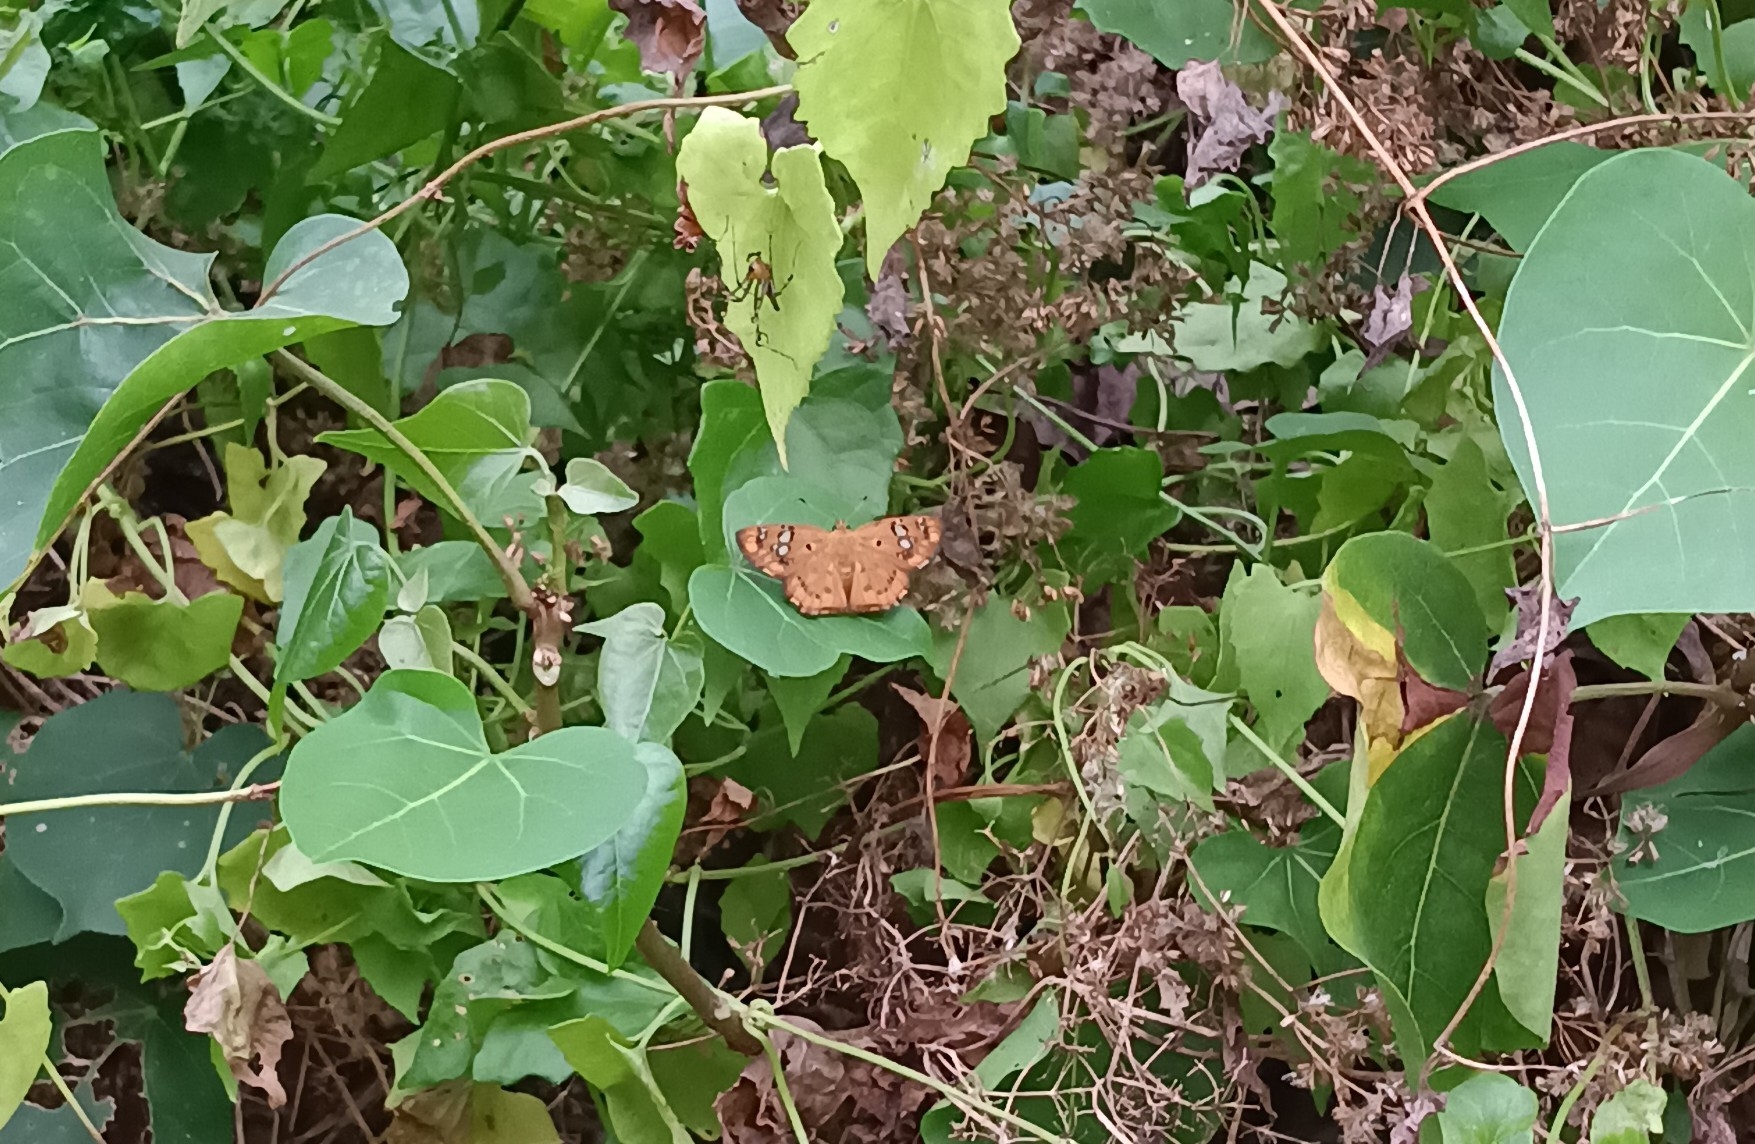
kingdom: Animalia
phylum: Arthropoda
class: Insecta
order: Lepidoptera
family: Hesperiidae
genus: Coladenia
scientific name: Coladenia
